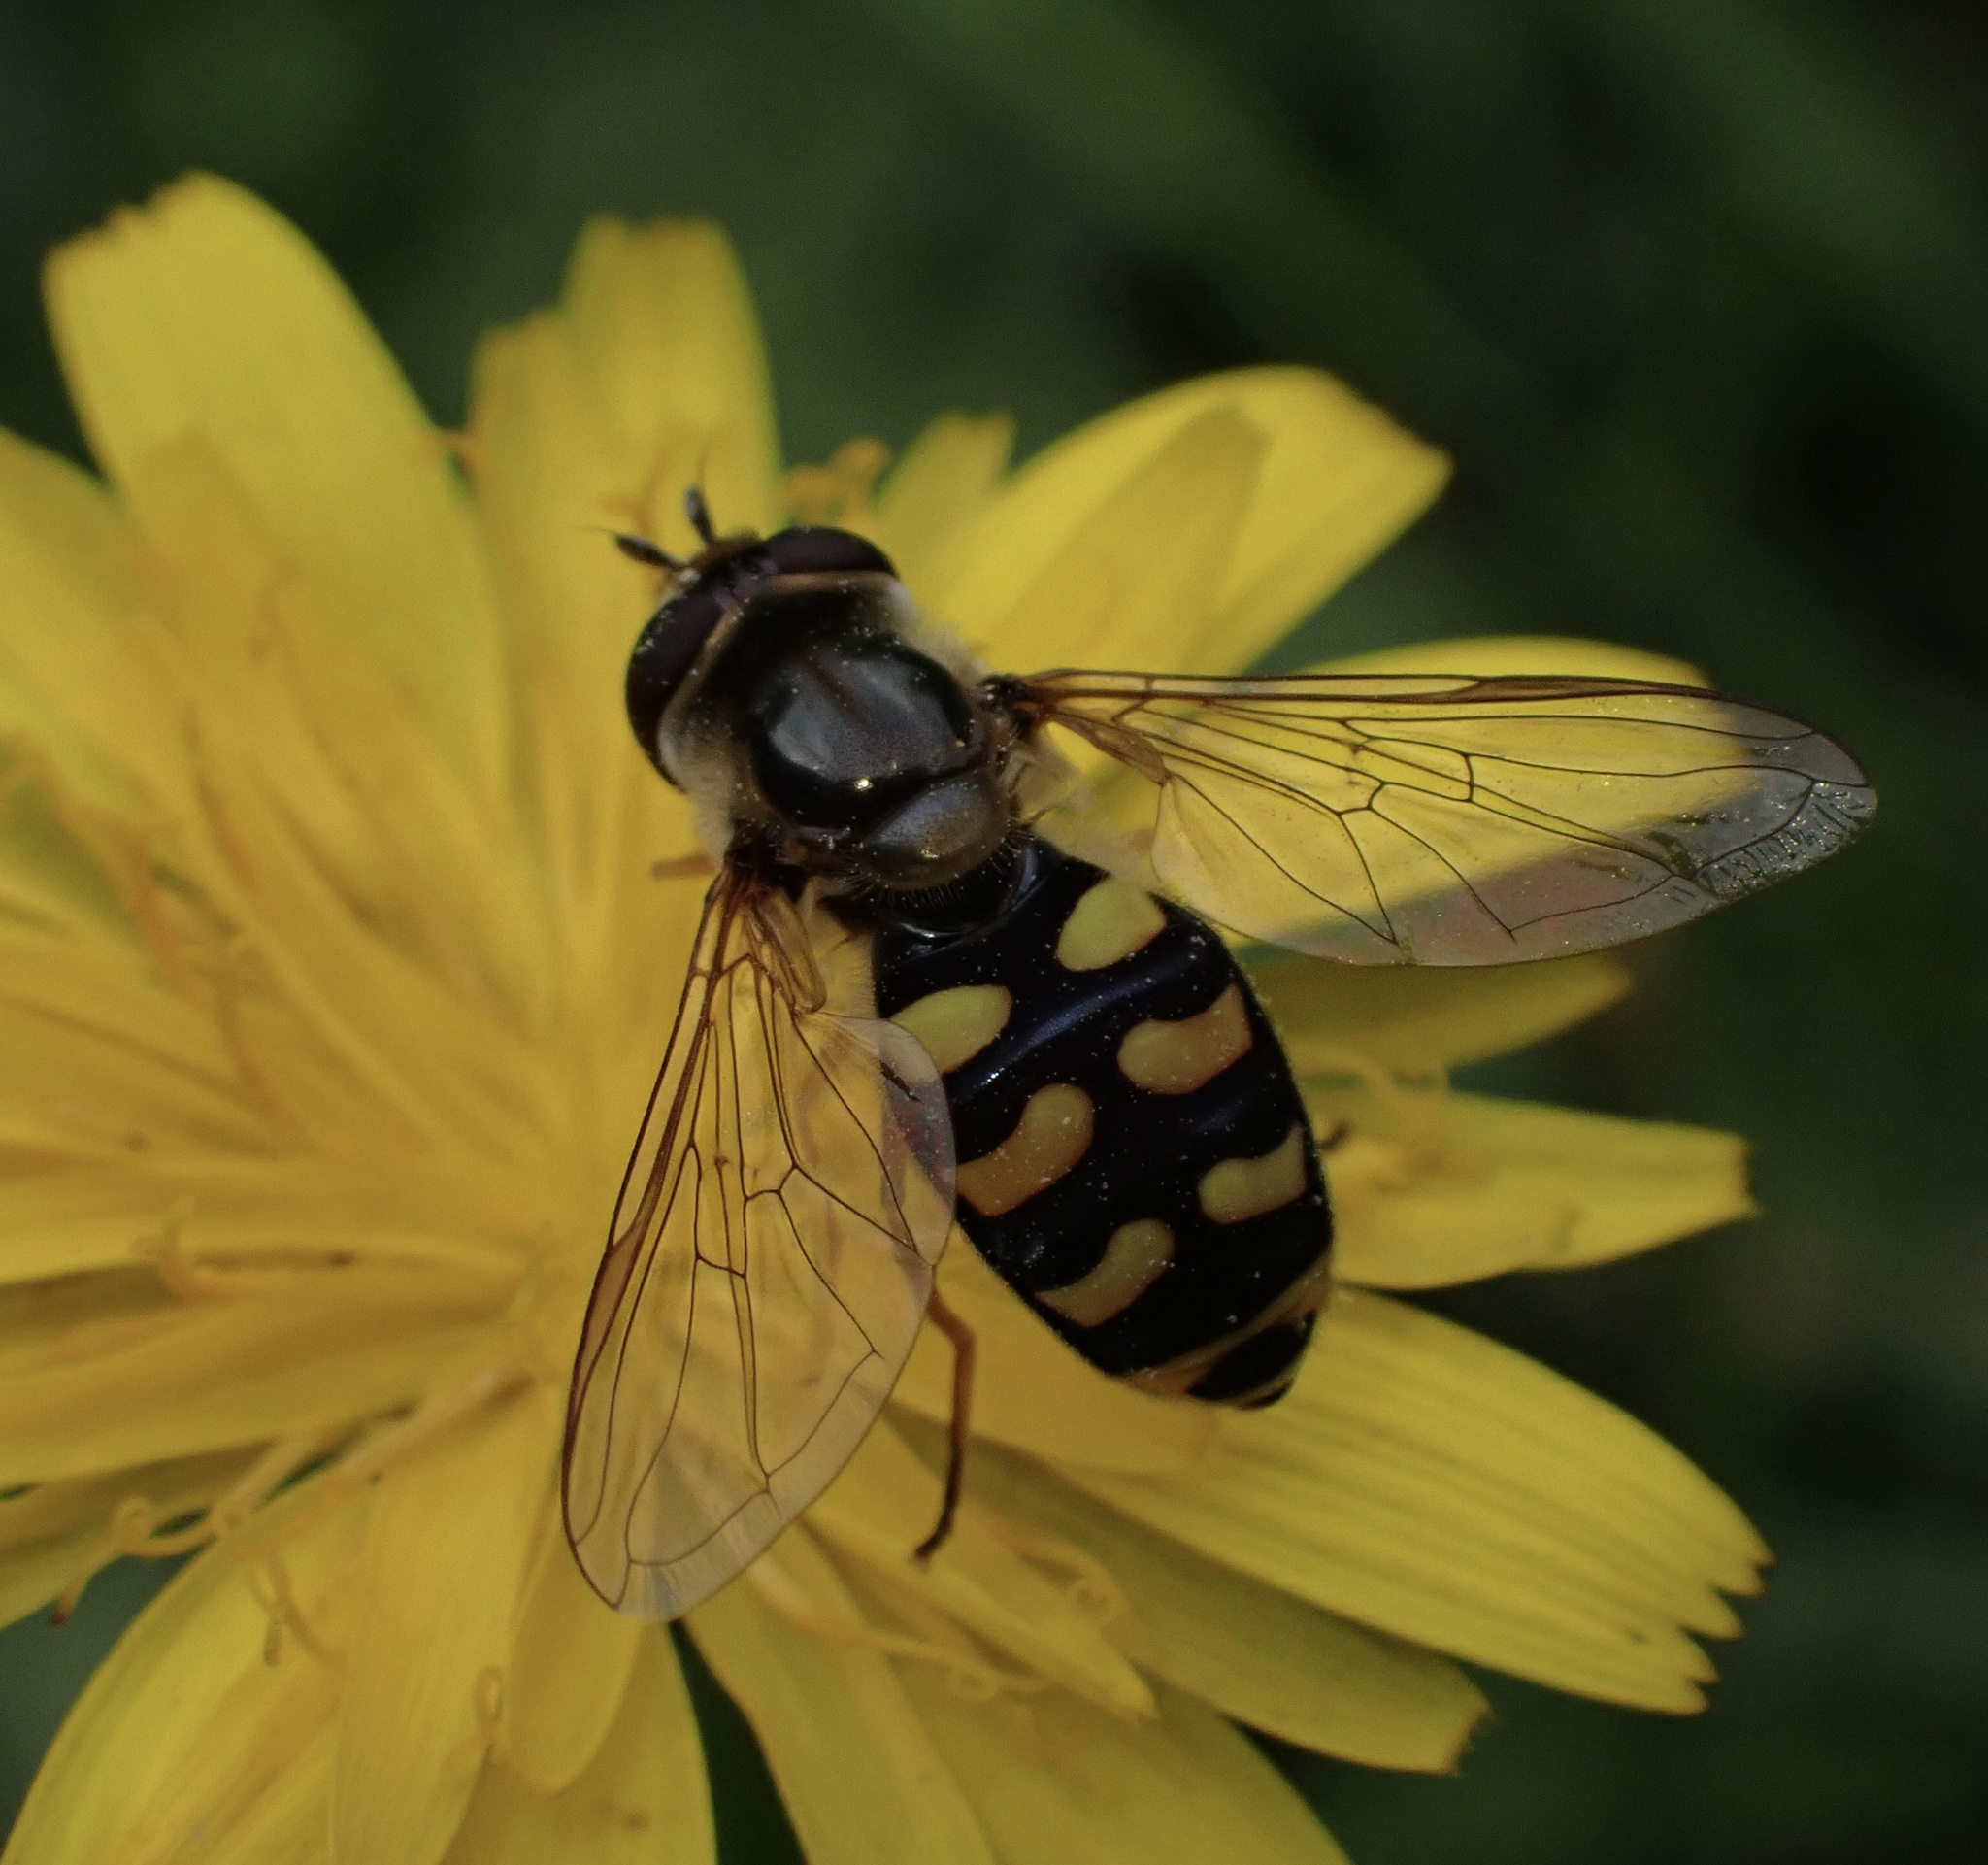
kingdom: Animalia
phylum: Arthropoda
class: Insecta
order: Diptera
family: Syrphidae
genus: Eupeodes
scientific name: Eupeodes luniger
